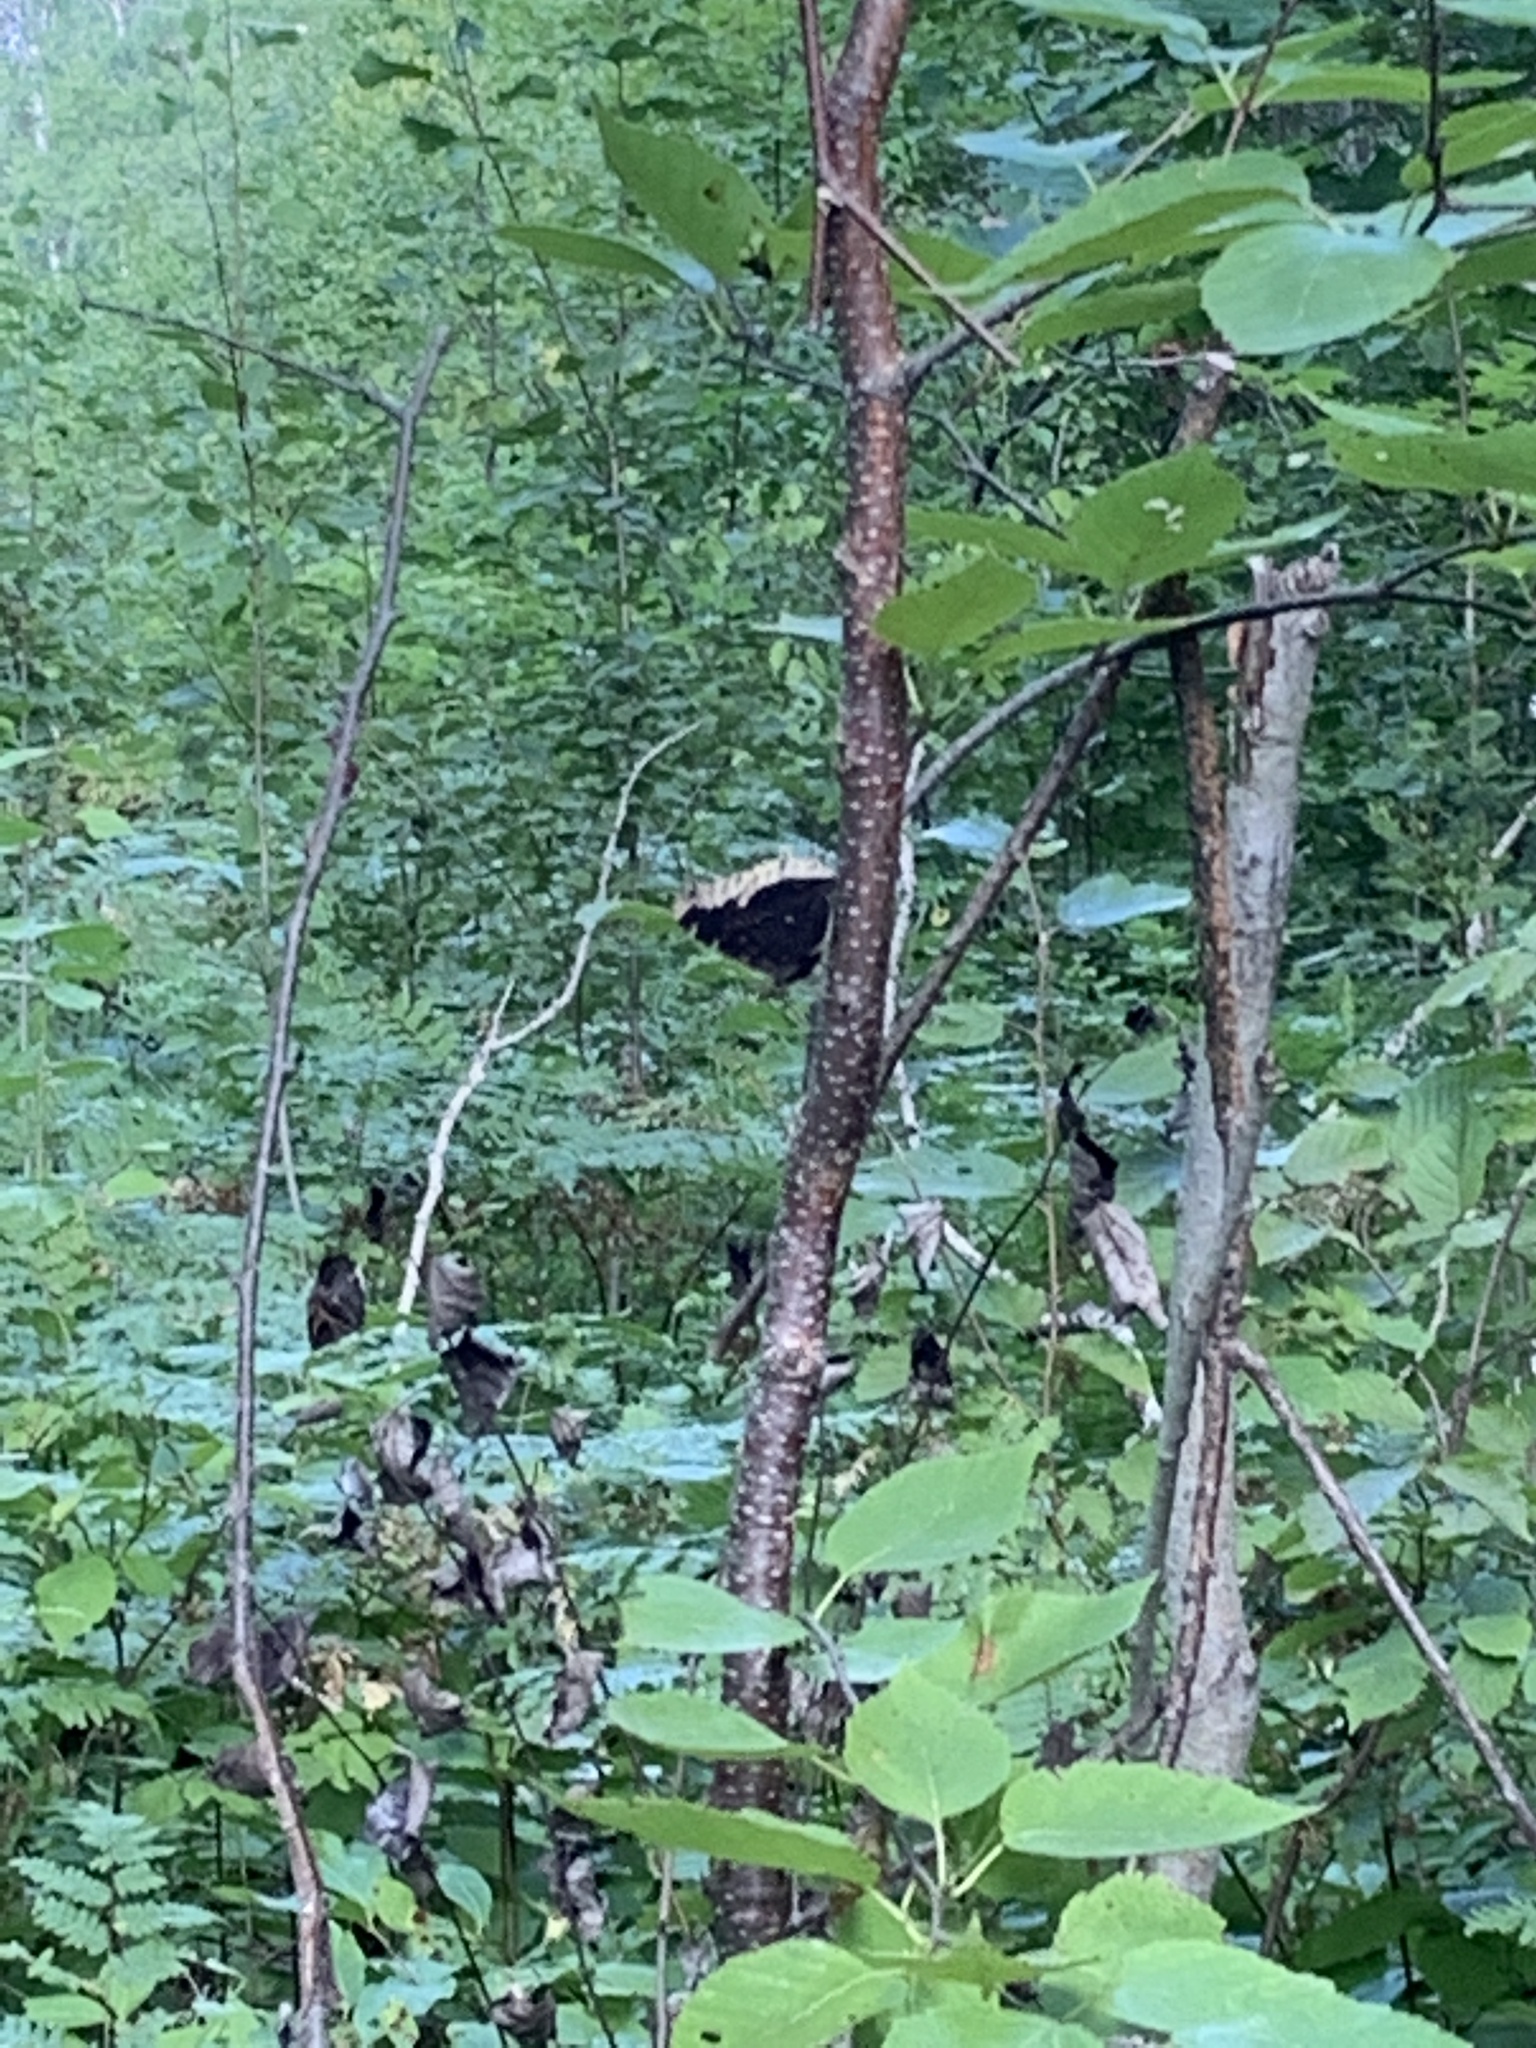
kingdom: Animalia
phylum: Arthropoda
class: Insecta
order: Lepidoptera
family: Nymphalidae
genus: Nymphalis
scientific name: Nymphalis antiopa
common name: Camberwell beauty
